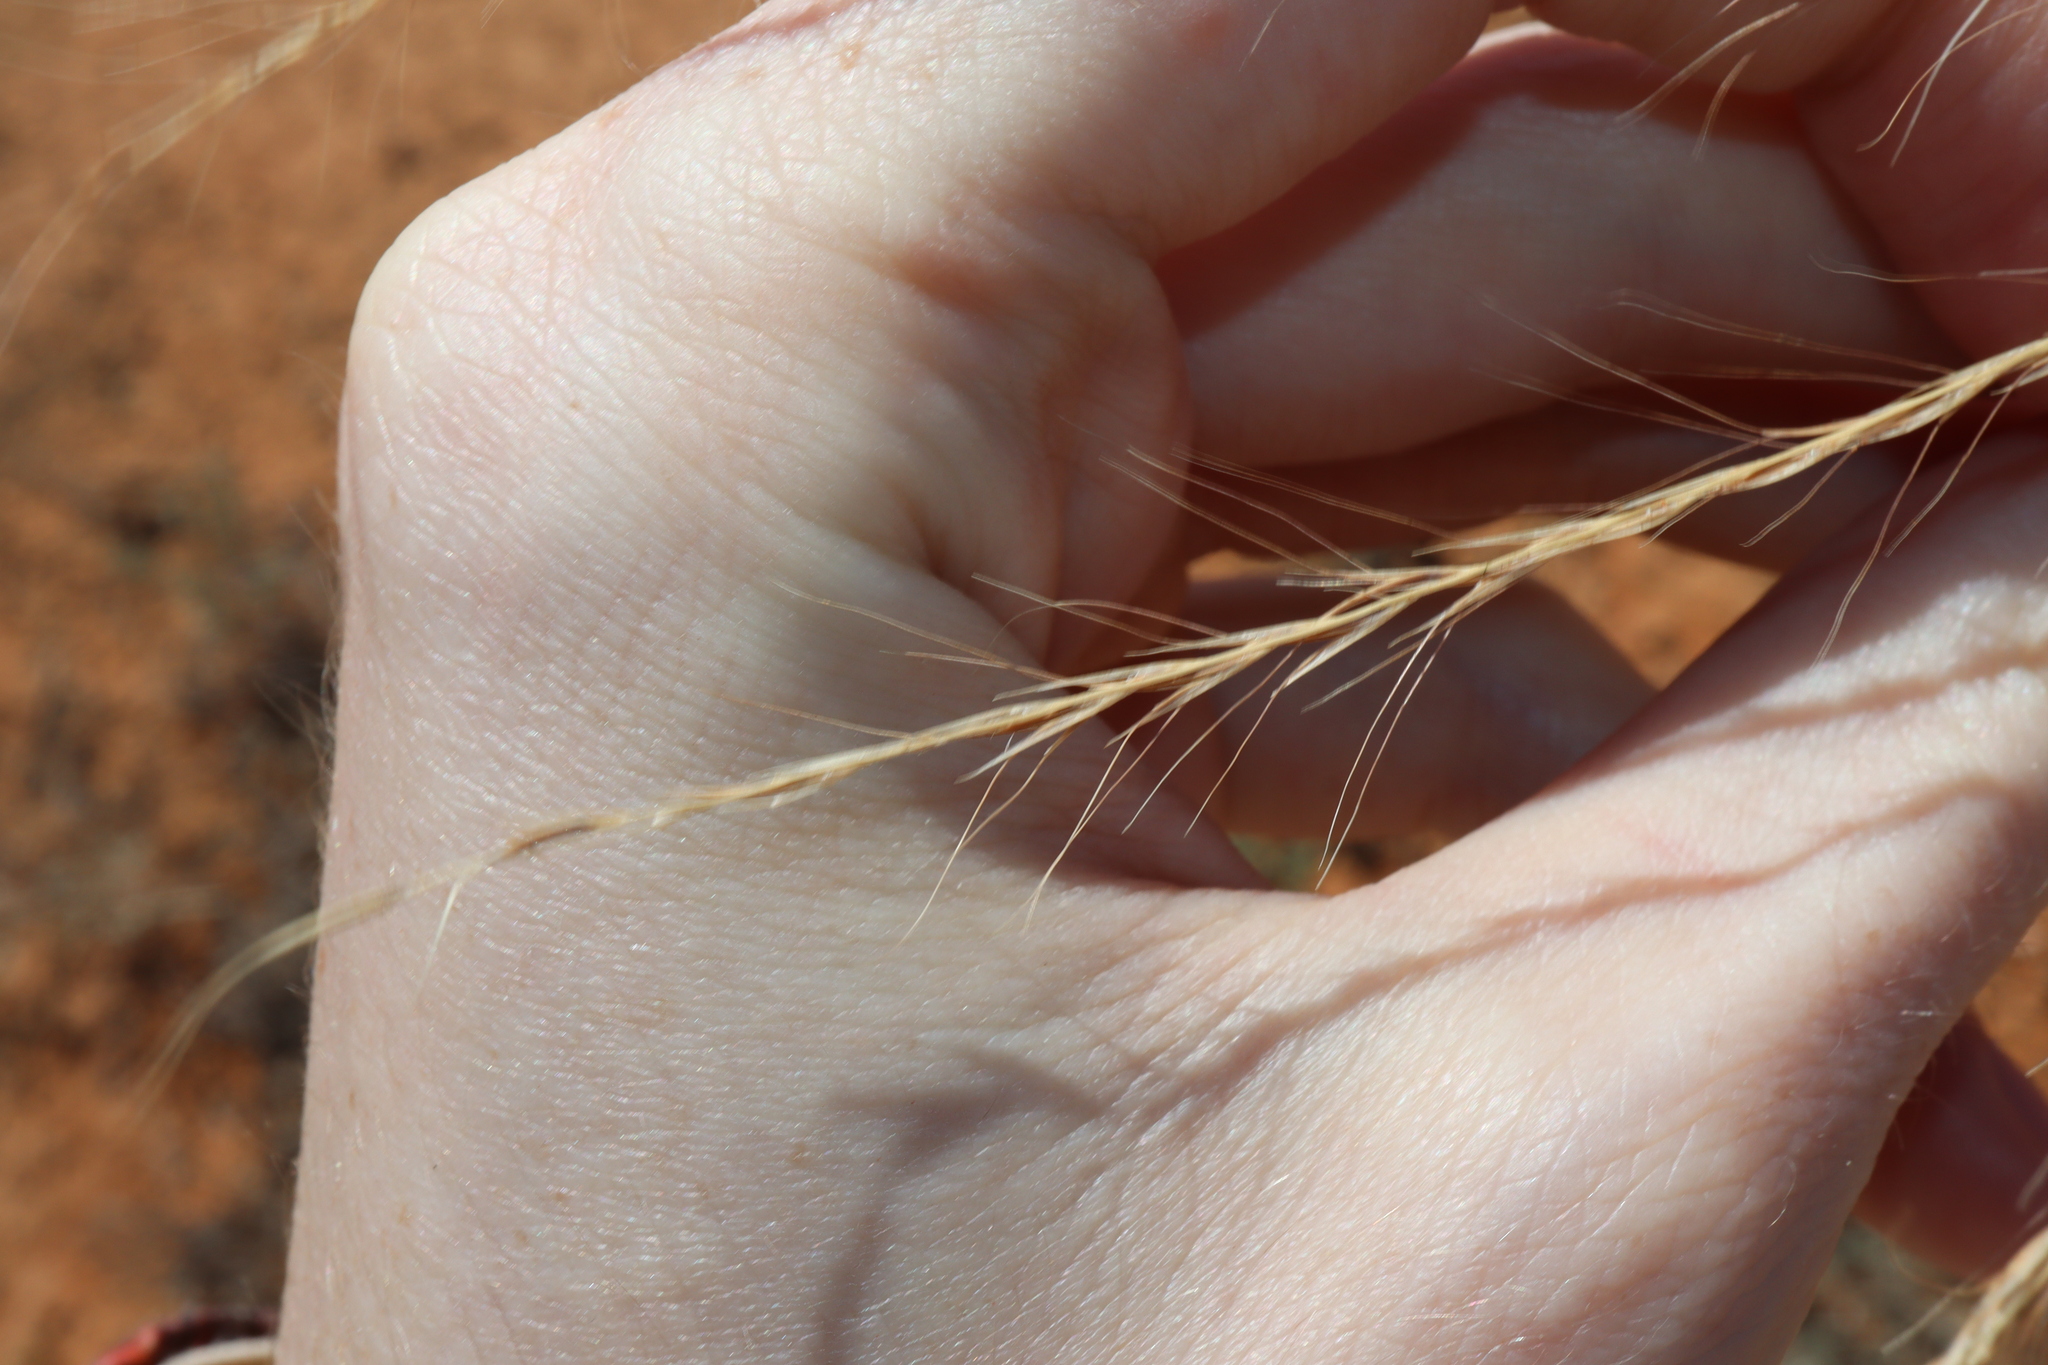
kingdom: Plantae
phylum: Tracheophyta
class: Liliopsida
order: Poales
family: Poaceae
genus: Enteropogon
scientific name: Enteropogon acicularis
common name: Curly windmill grass
